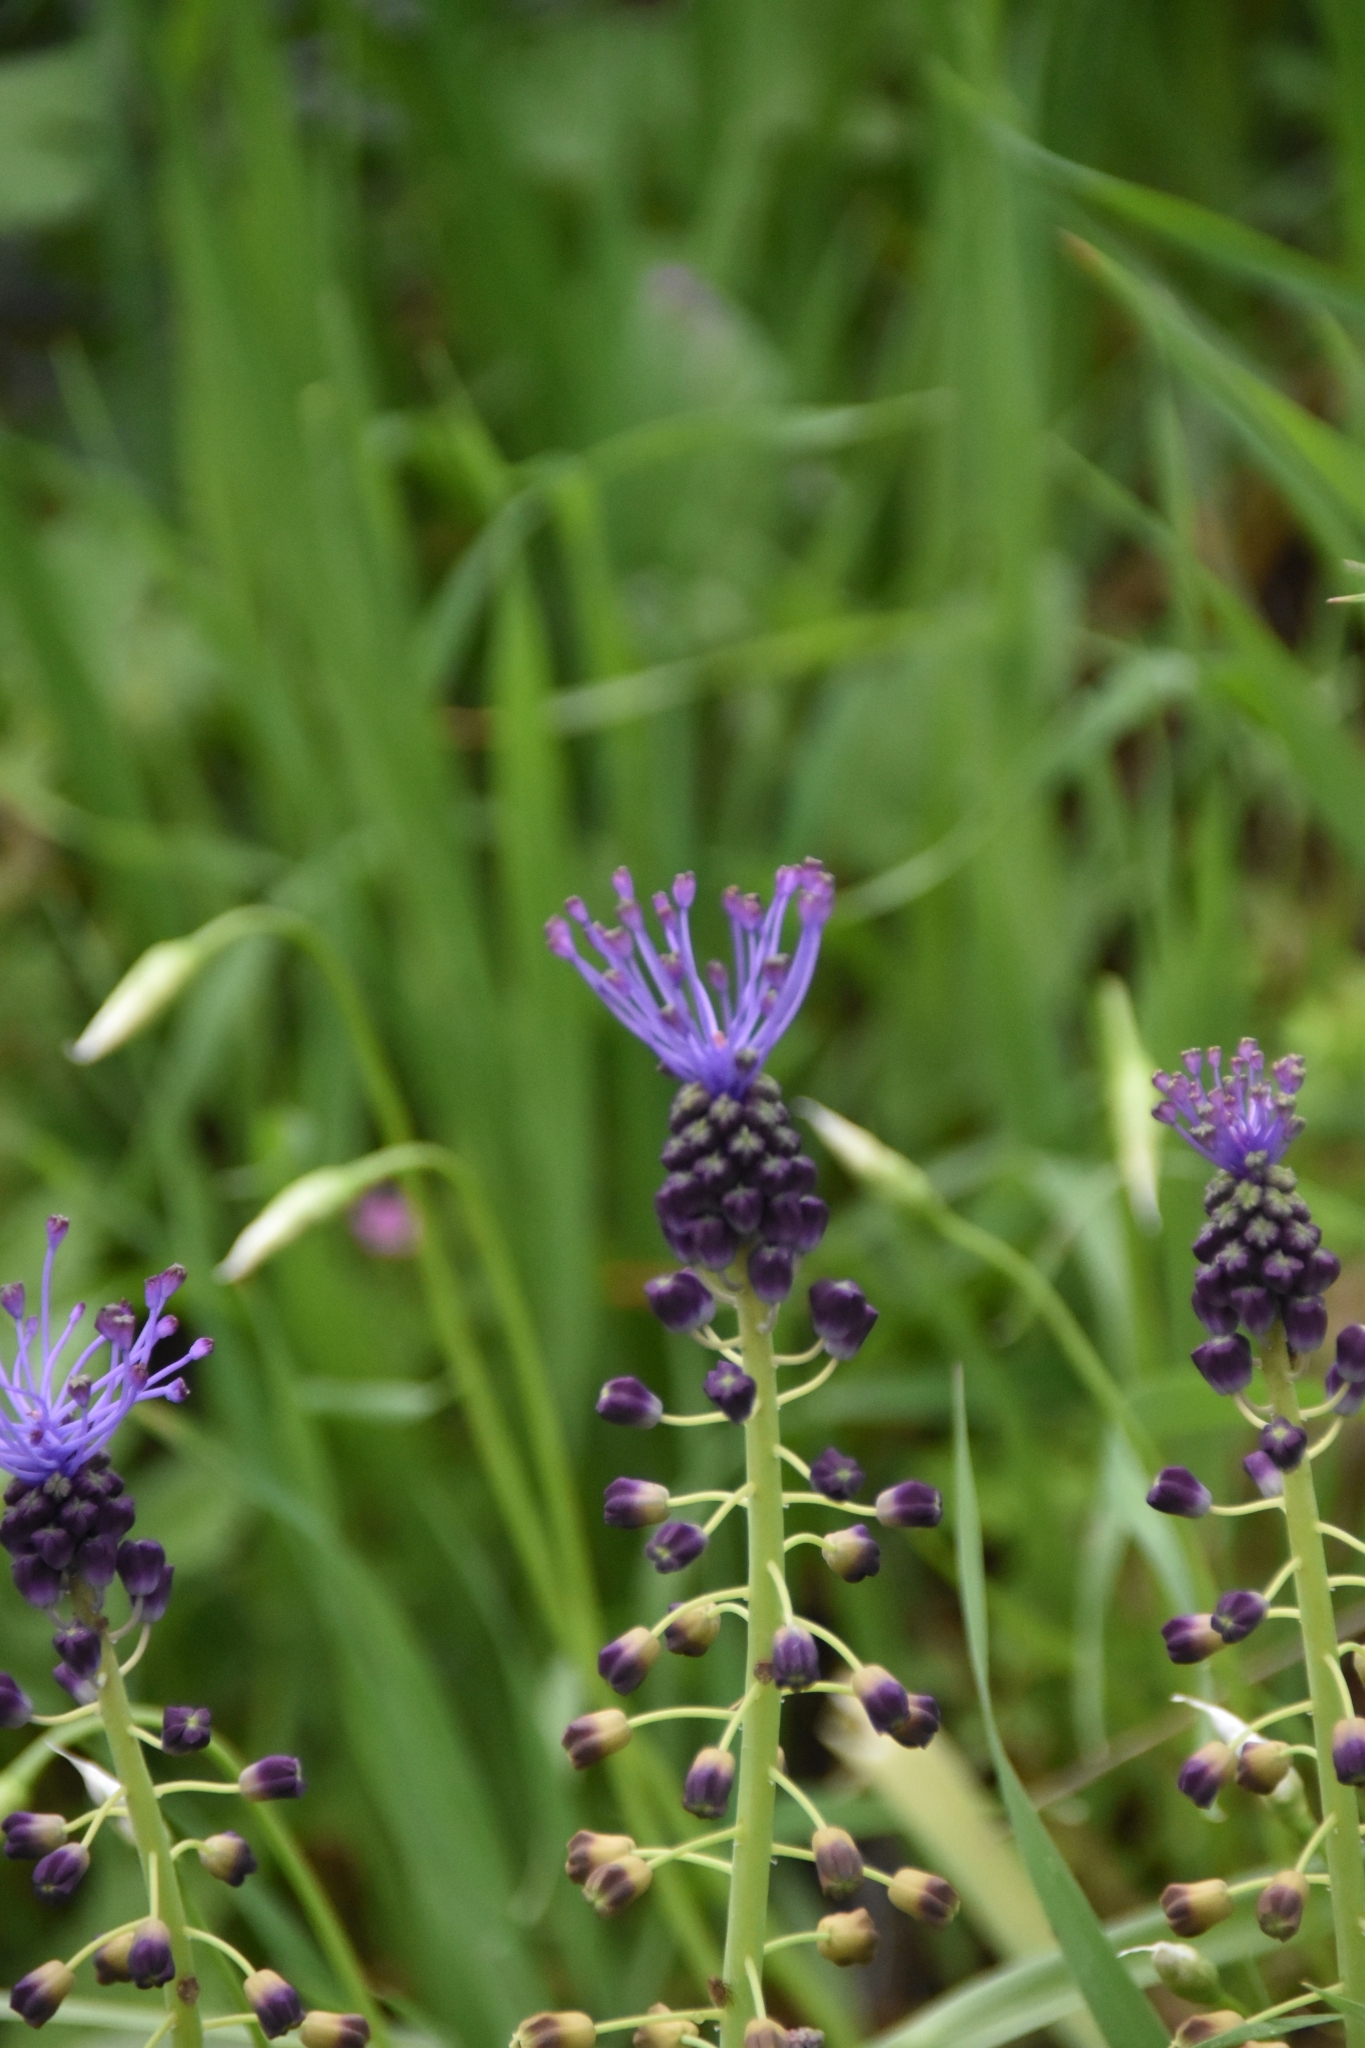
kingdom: Plantae
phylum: Tracheophyta
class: Liliopsida
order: Asparagales
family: Asparagaceae
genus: Muscari
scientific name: Muscari comosum
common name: Tassel hyacinth
